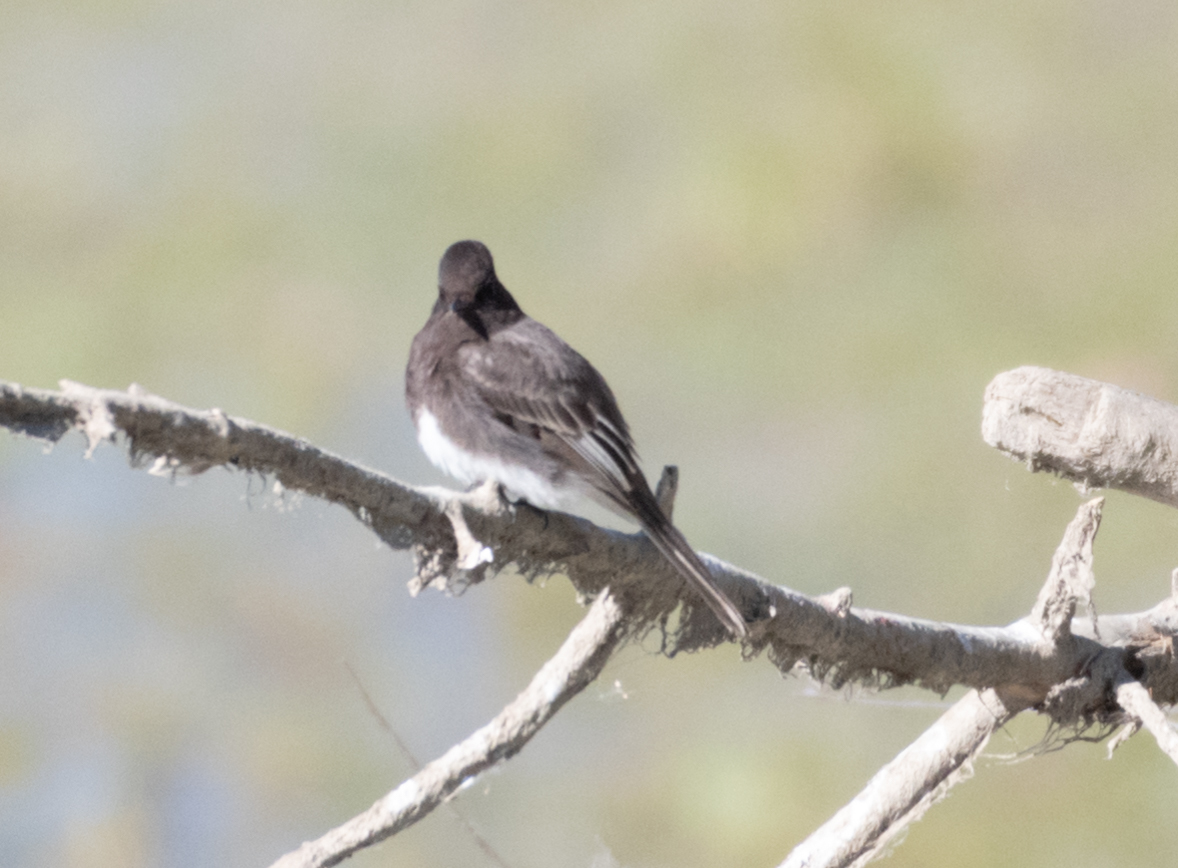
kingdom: Animalia
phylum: Chordata
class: Aves
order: Passeriformes
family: Tyrannidae
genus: Sayornis
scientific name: Sayornis nigricans
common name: Black phoebe
